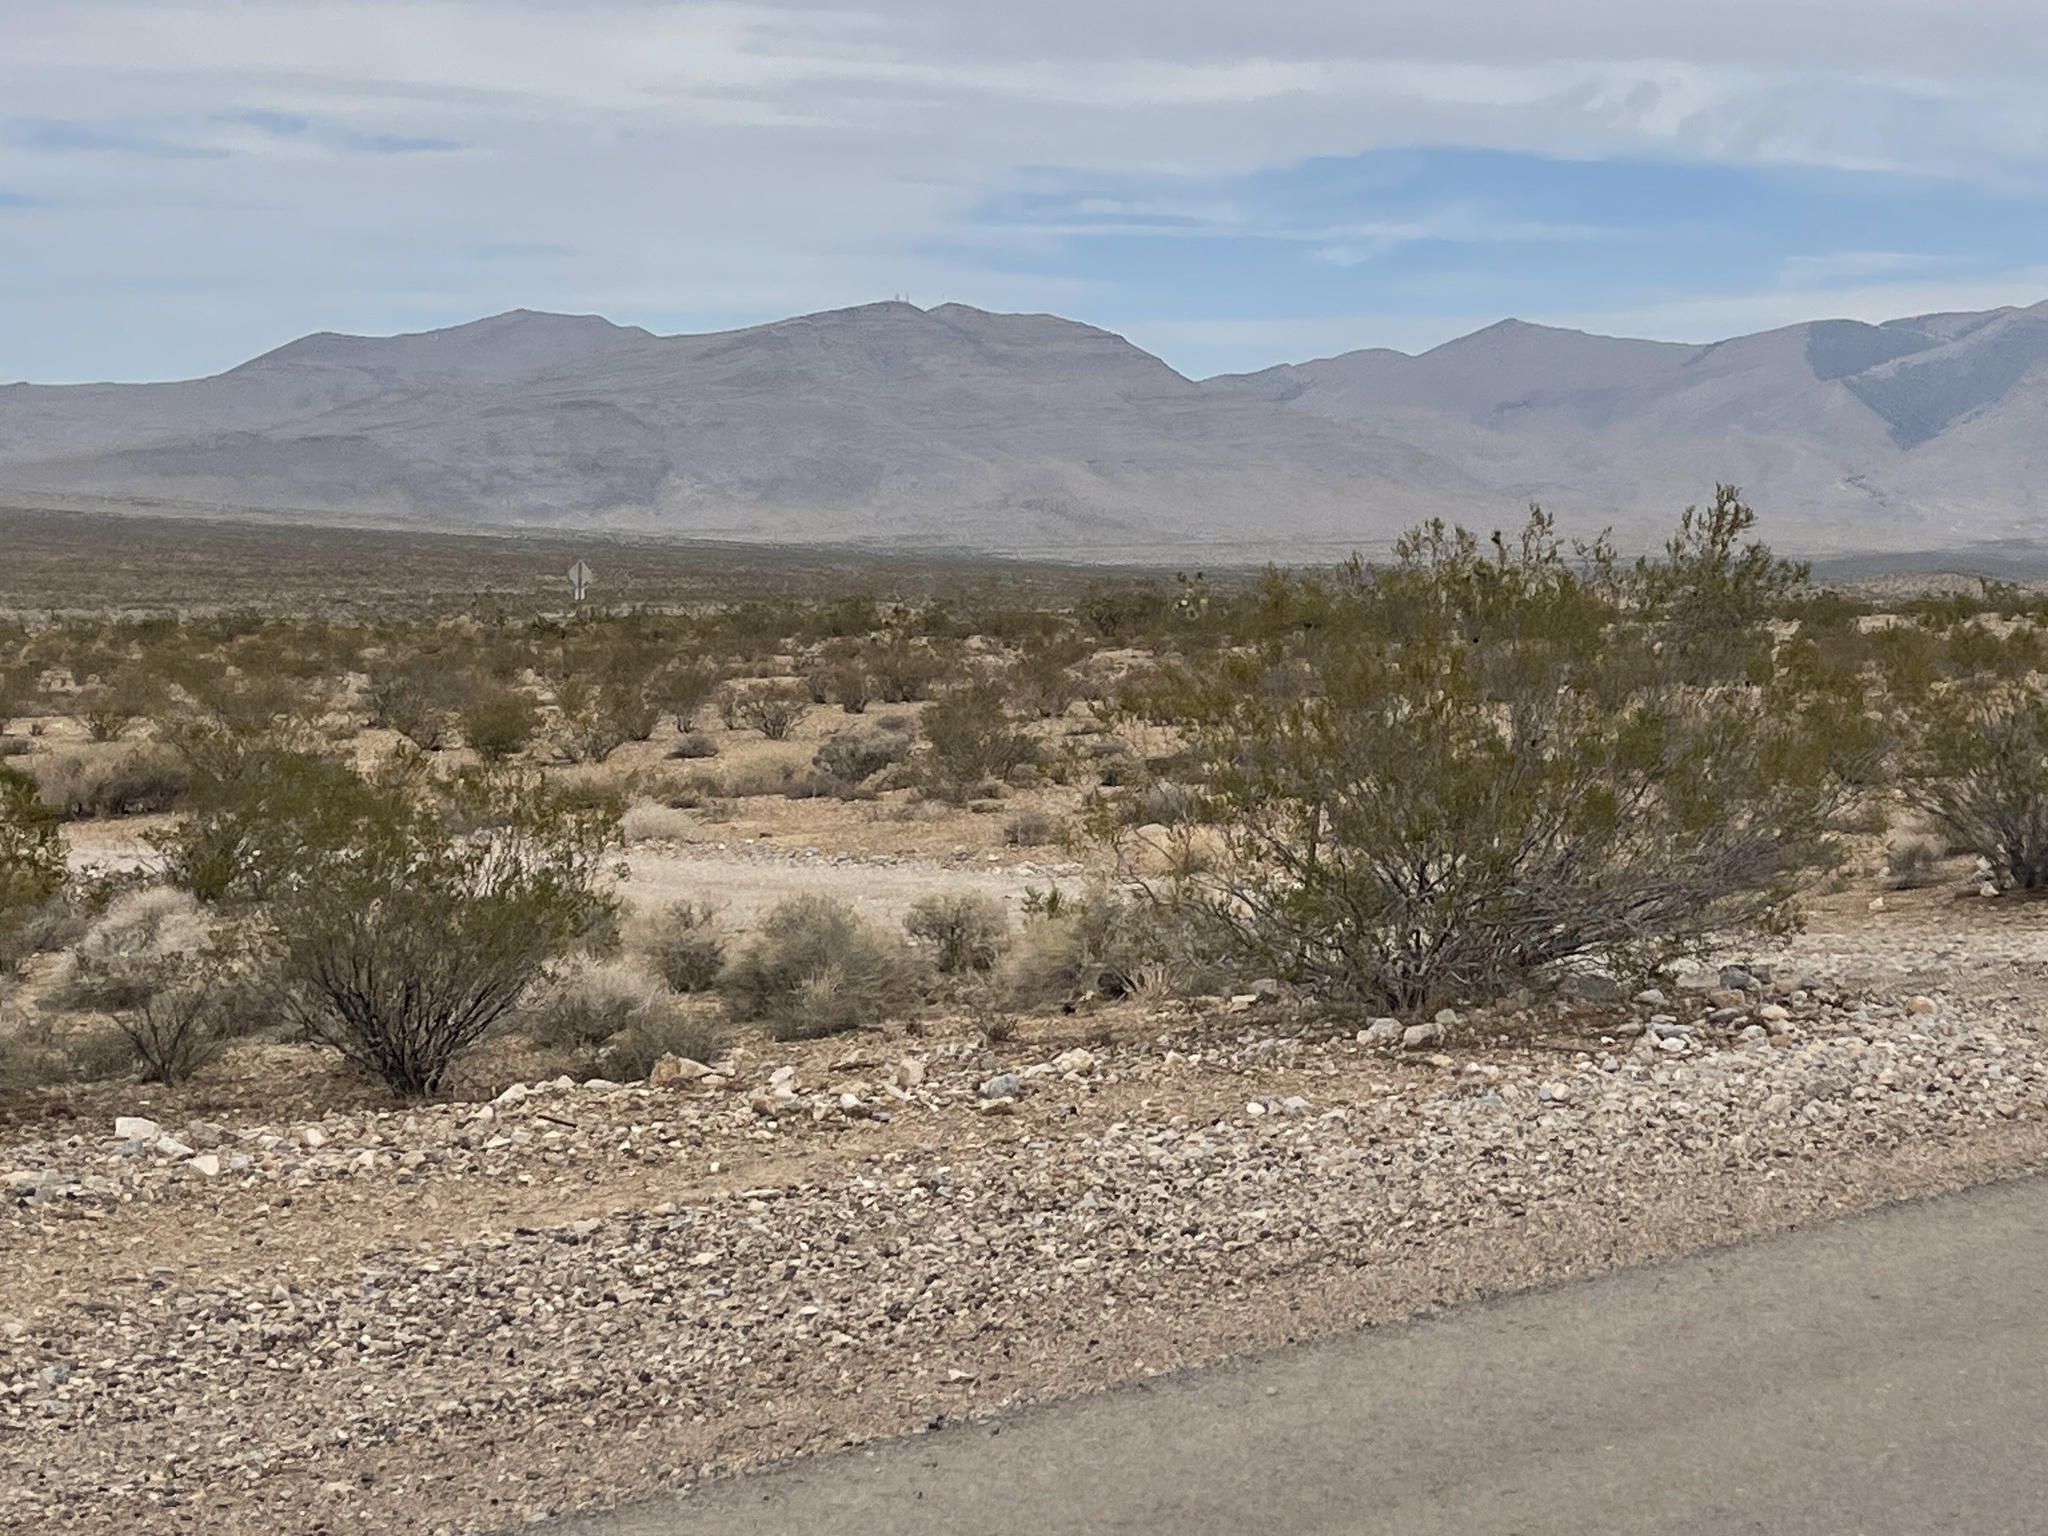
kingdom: Plantae
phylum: Tracheophyta
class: Magnoliopsida
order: Zygophyllales
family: Zygophyllaceae
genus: Larrea
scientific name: Larrea tridentata
